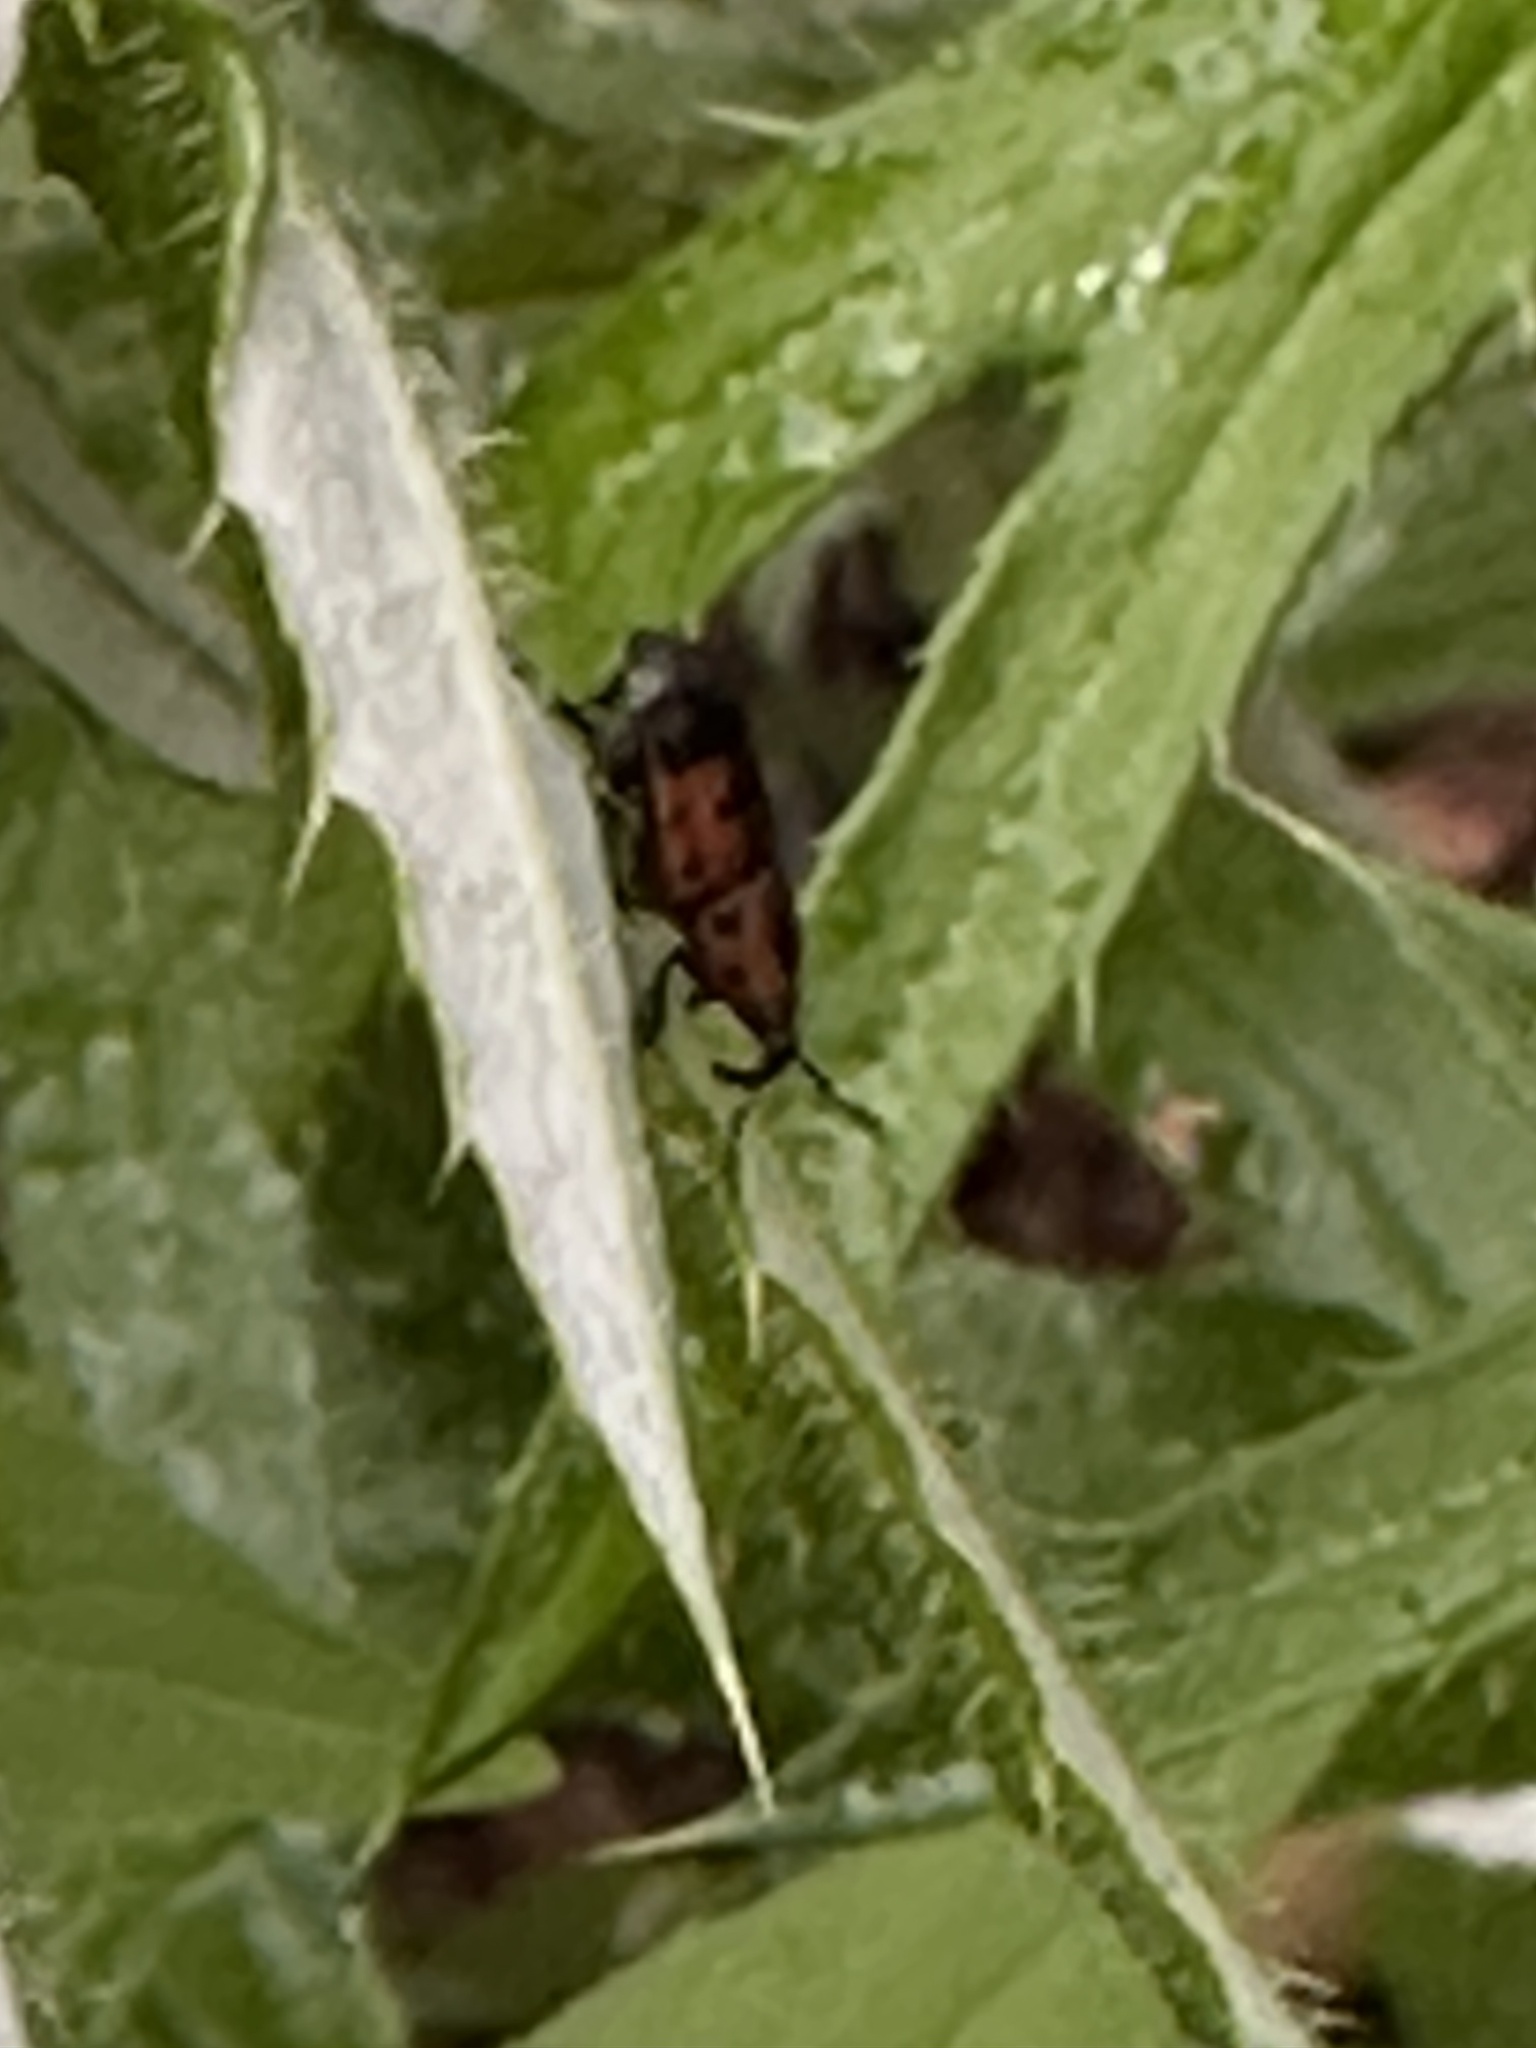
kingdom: Animalia
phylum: Arthropoda
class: Insecta
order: Coleoptera
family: Dryophthoridae
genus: Rhodobaenus
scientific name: Rhodobaenus quinquepunctatus
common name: Cocklebur weevil
